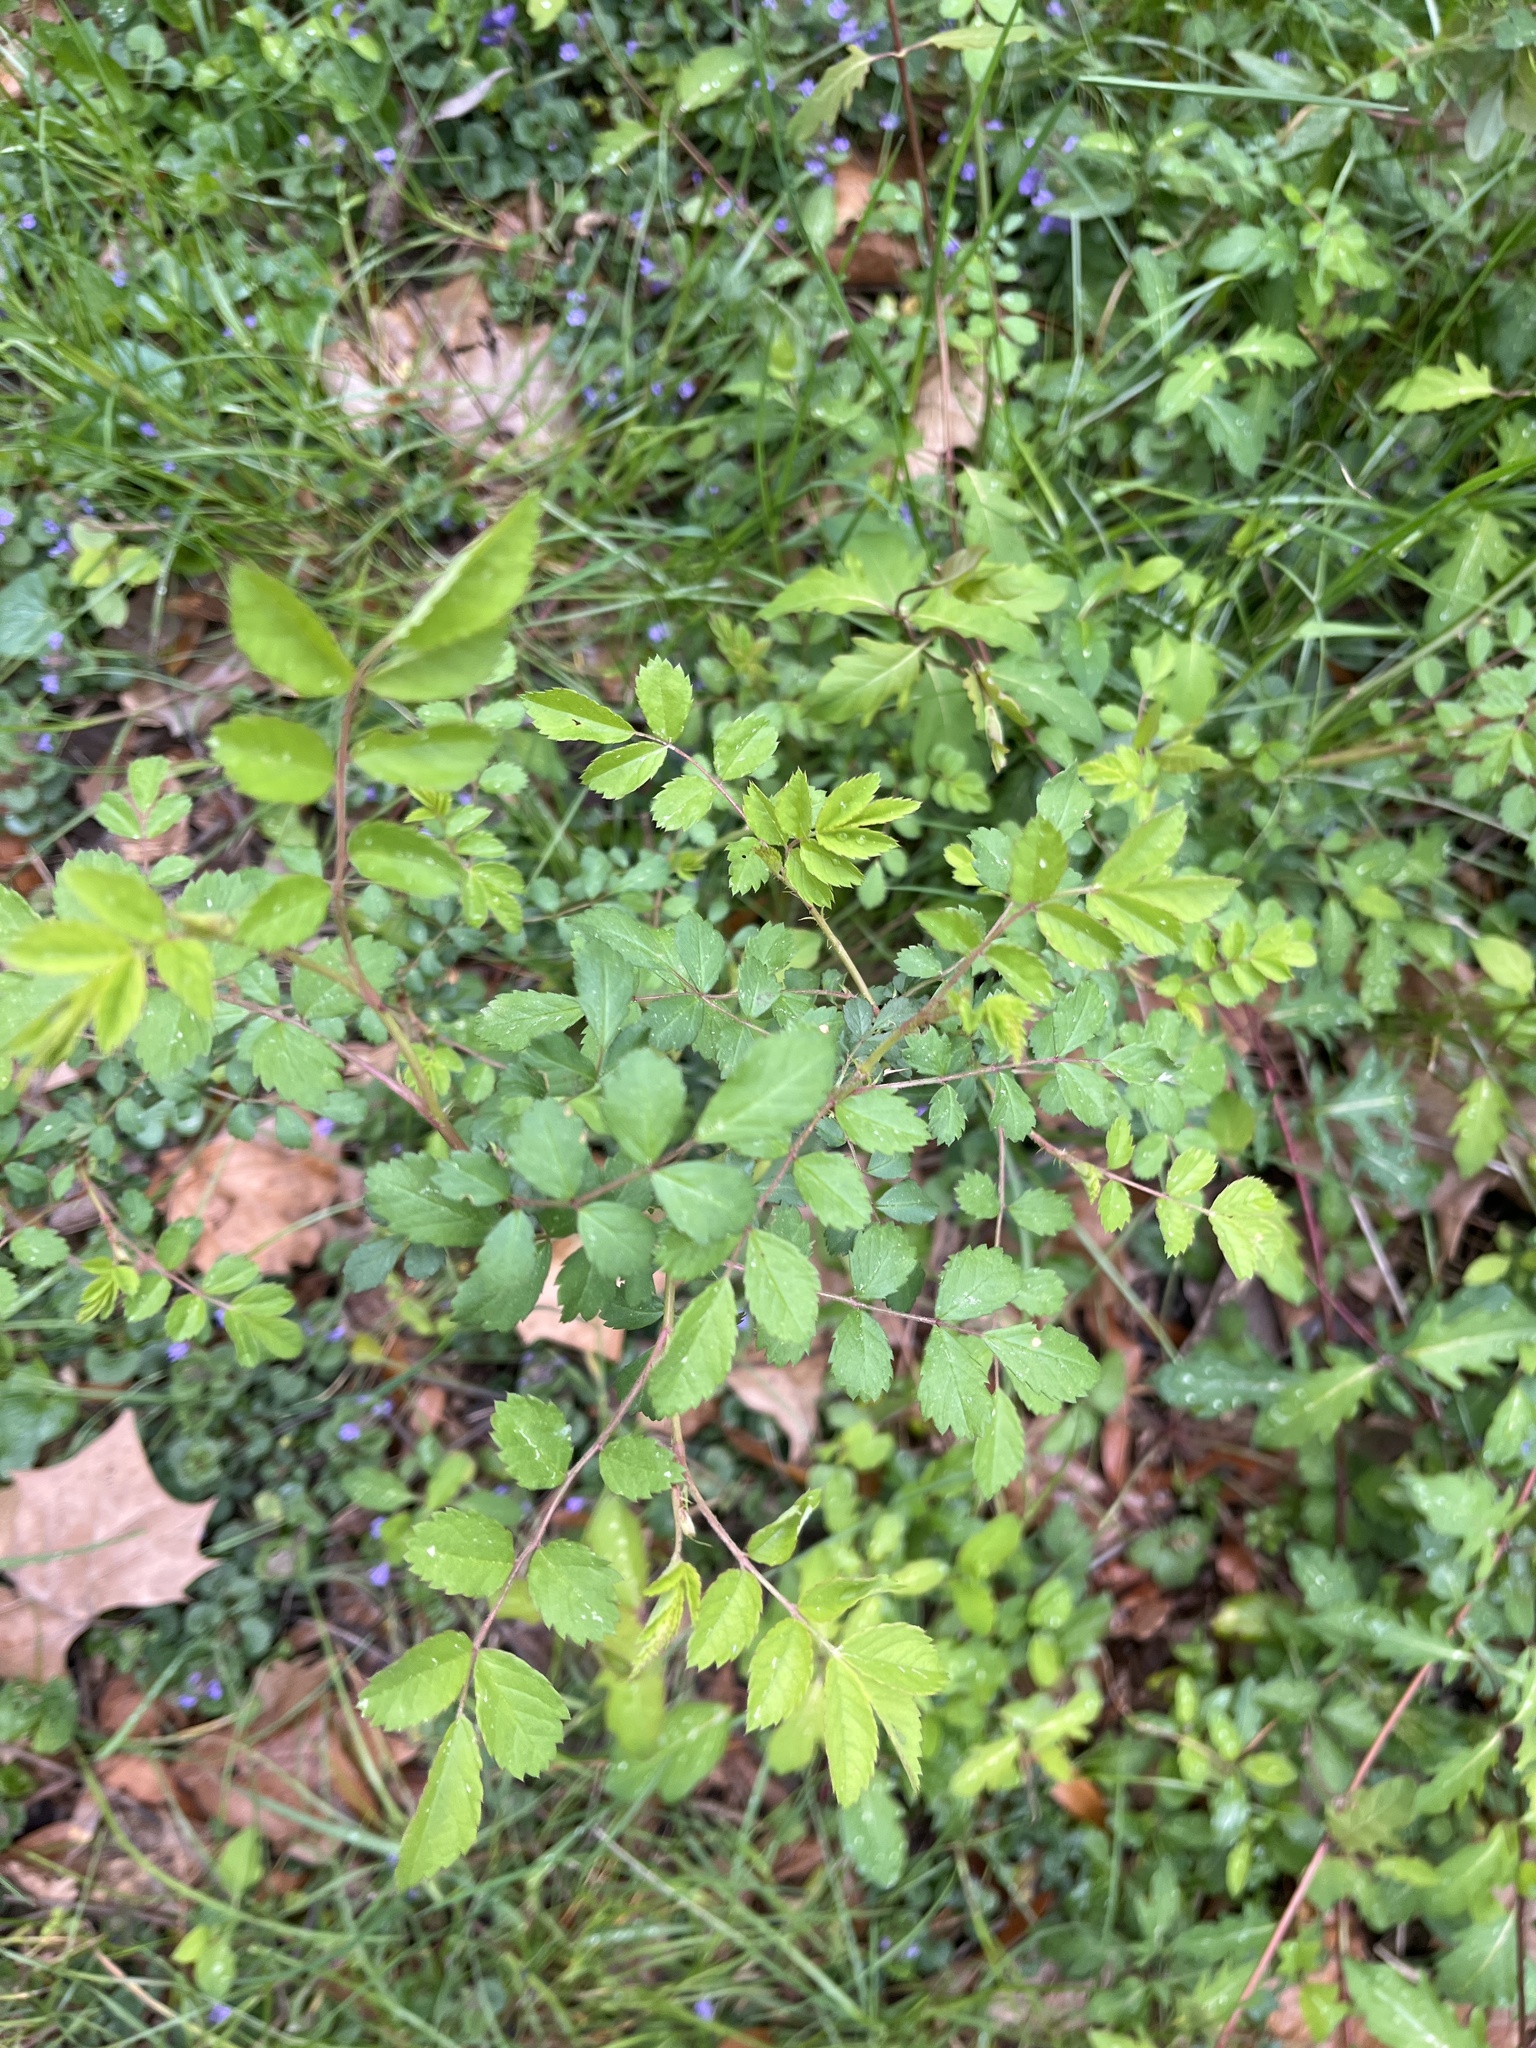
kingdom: Plantae
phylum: Tracheophyta
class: Magnoliopsida
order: Rosales
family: Rosaceae
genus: Rosa
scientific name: Rosa multiflora
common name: Multiflora rose
